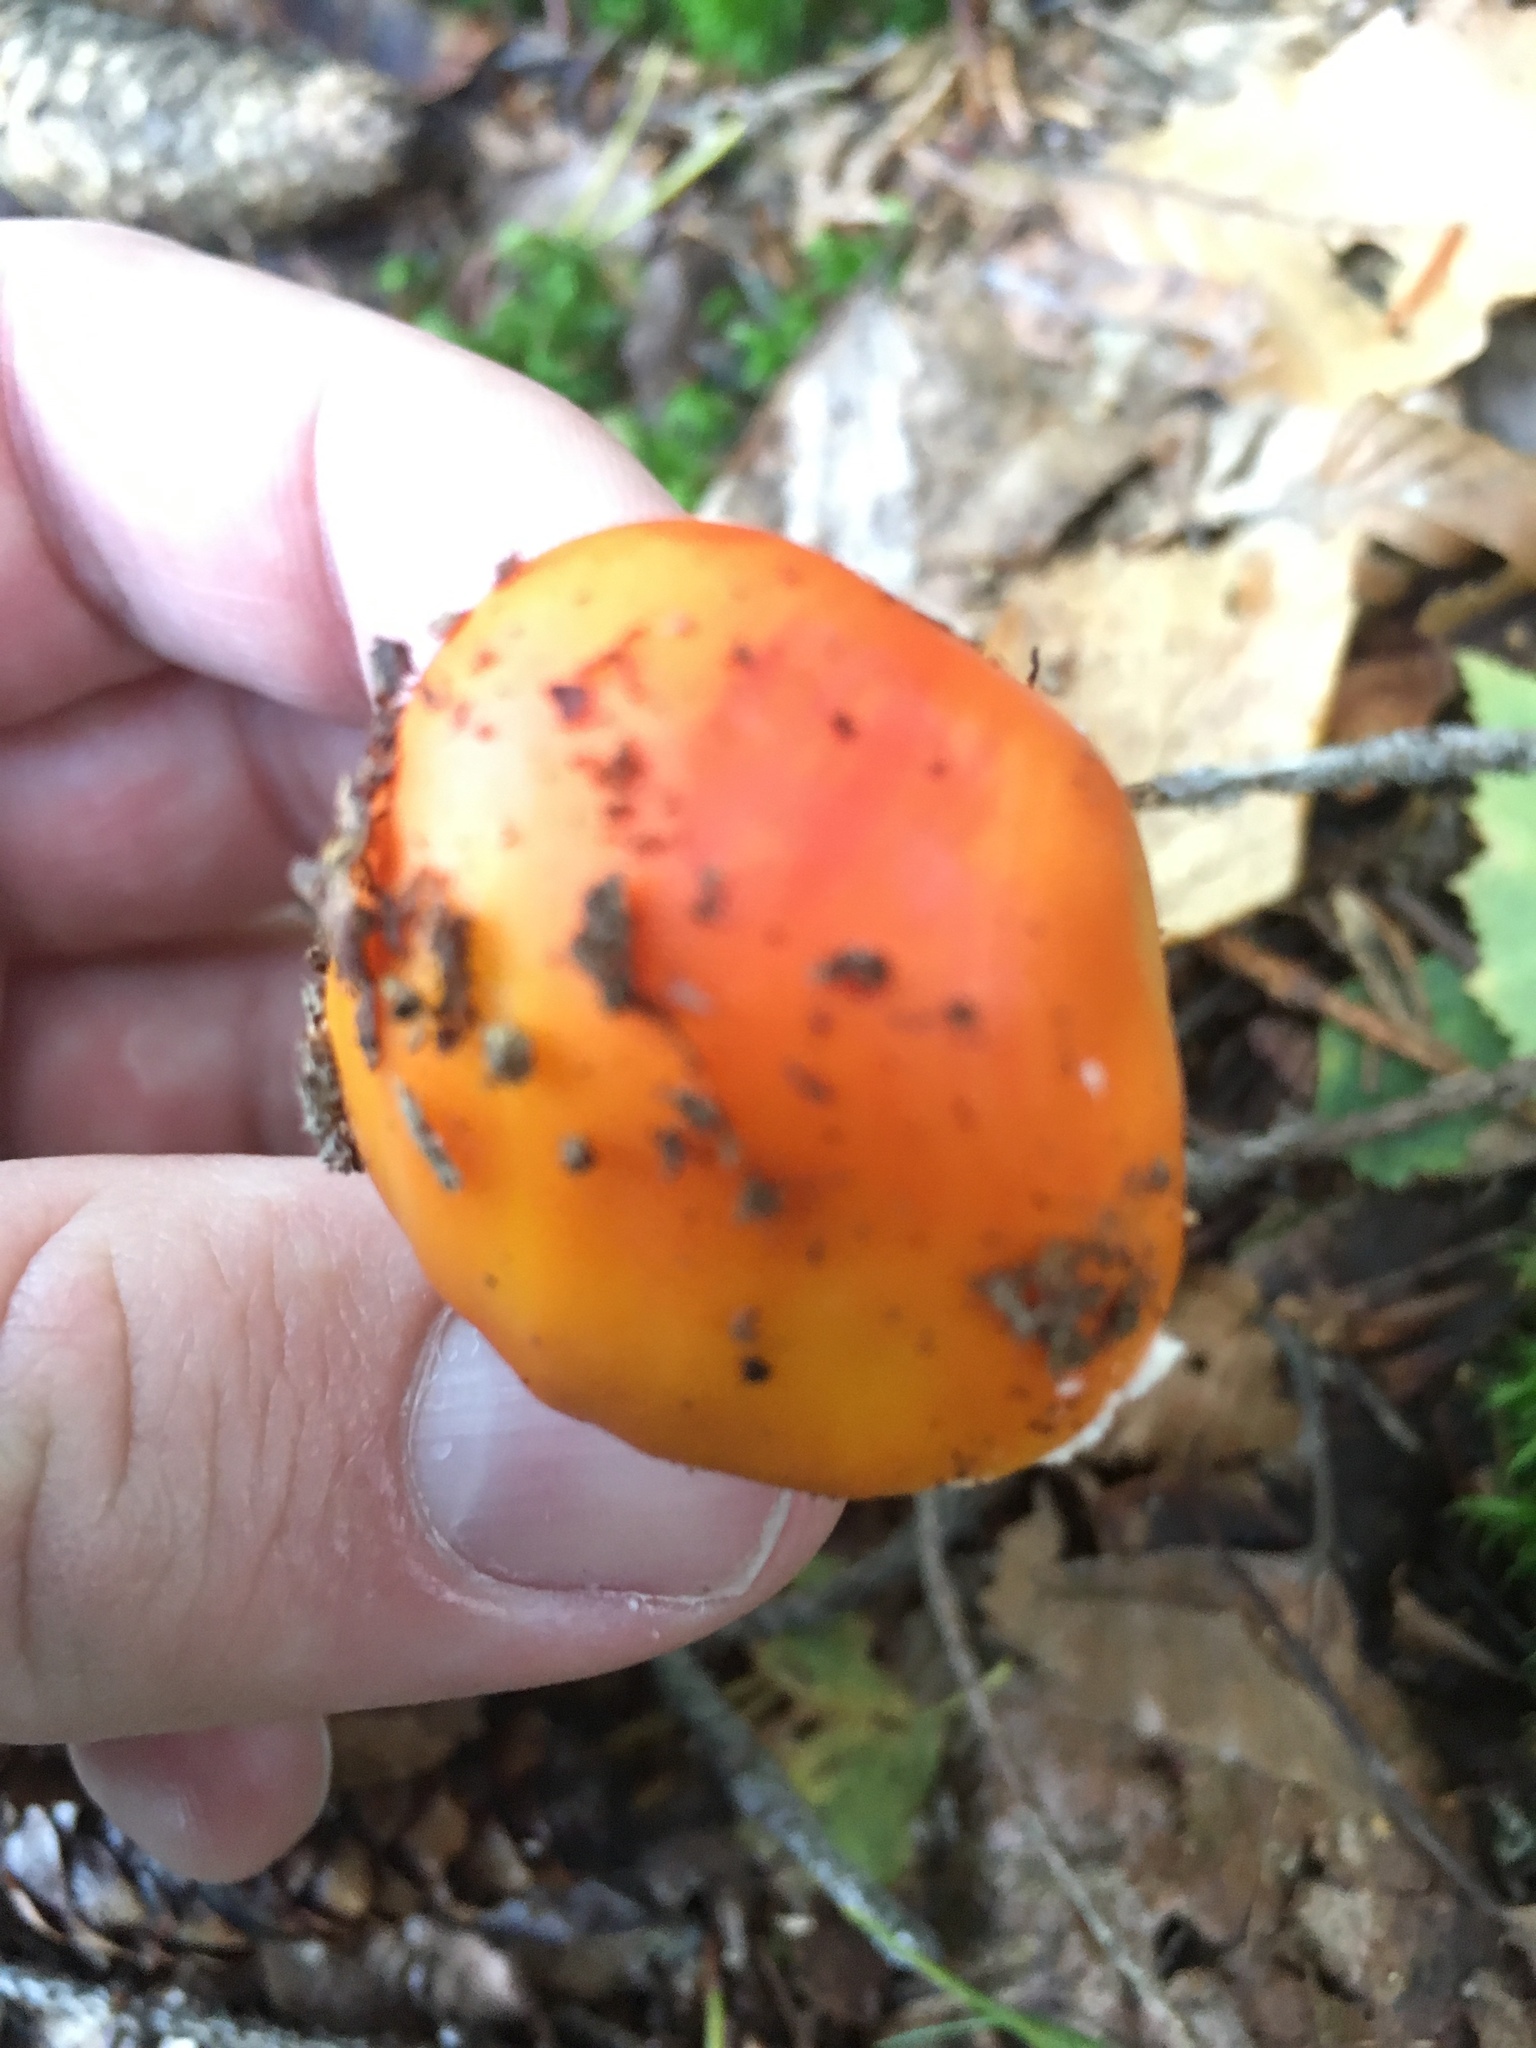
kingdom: Fungi
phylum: Basidiomycota
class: Agaricomycetes
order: Agaricales
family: Amanitaceae
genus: Amanita
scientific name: Amanita muscaria
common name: Fly agaric
